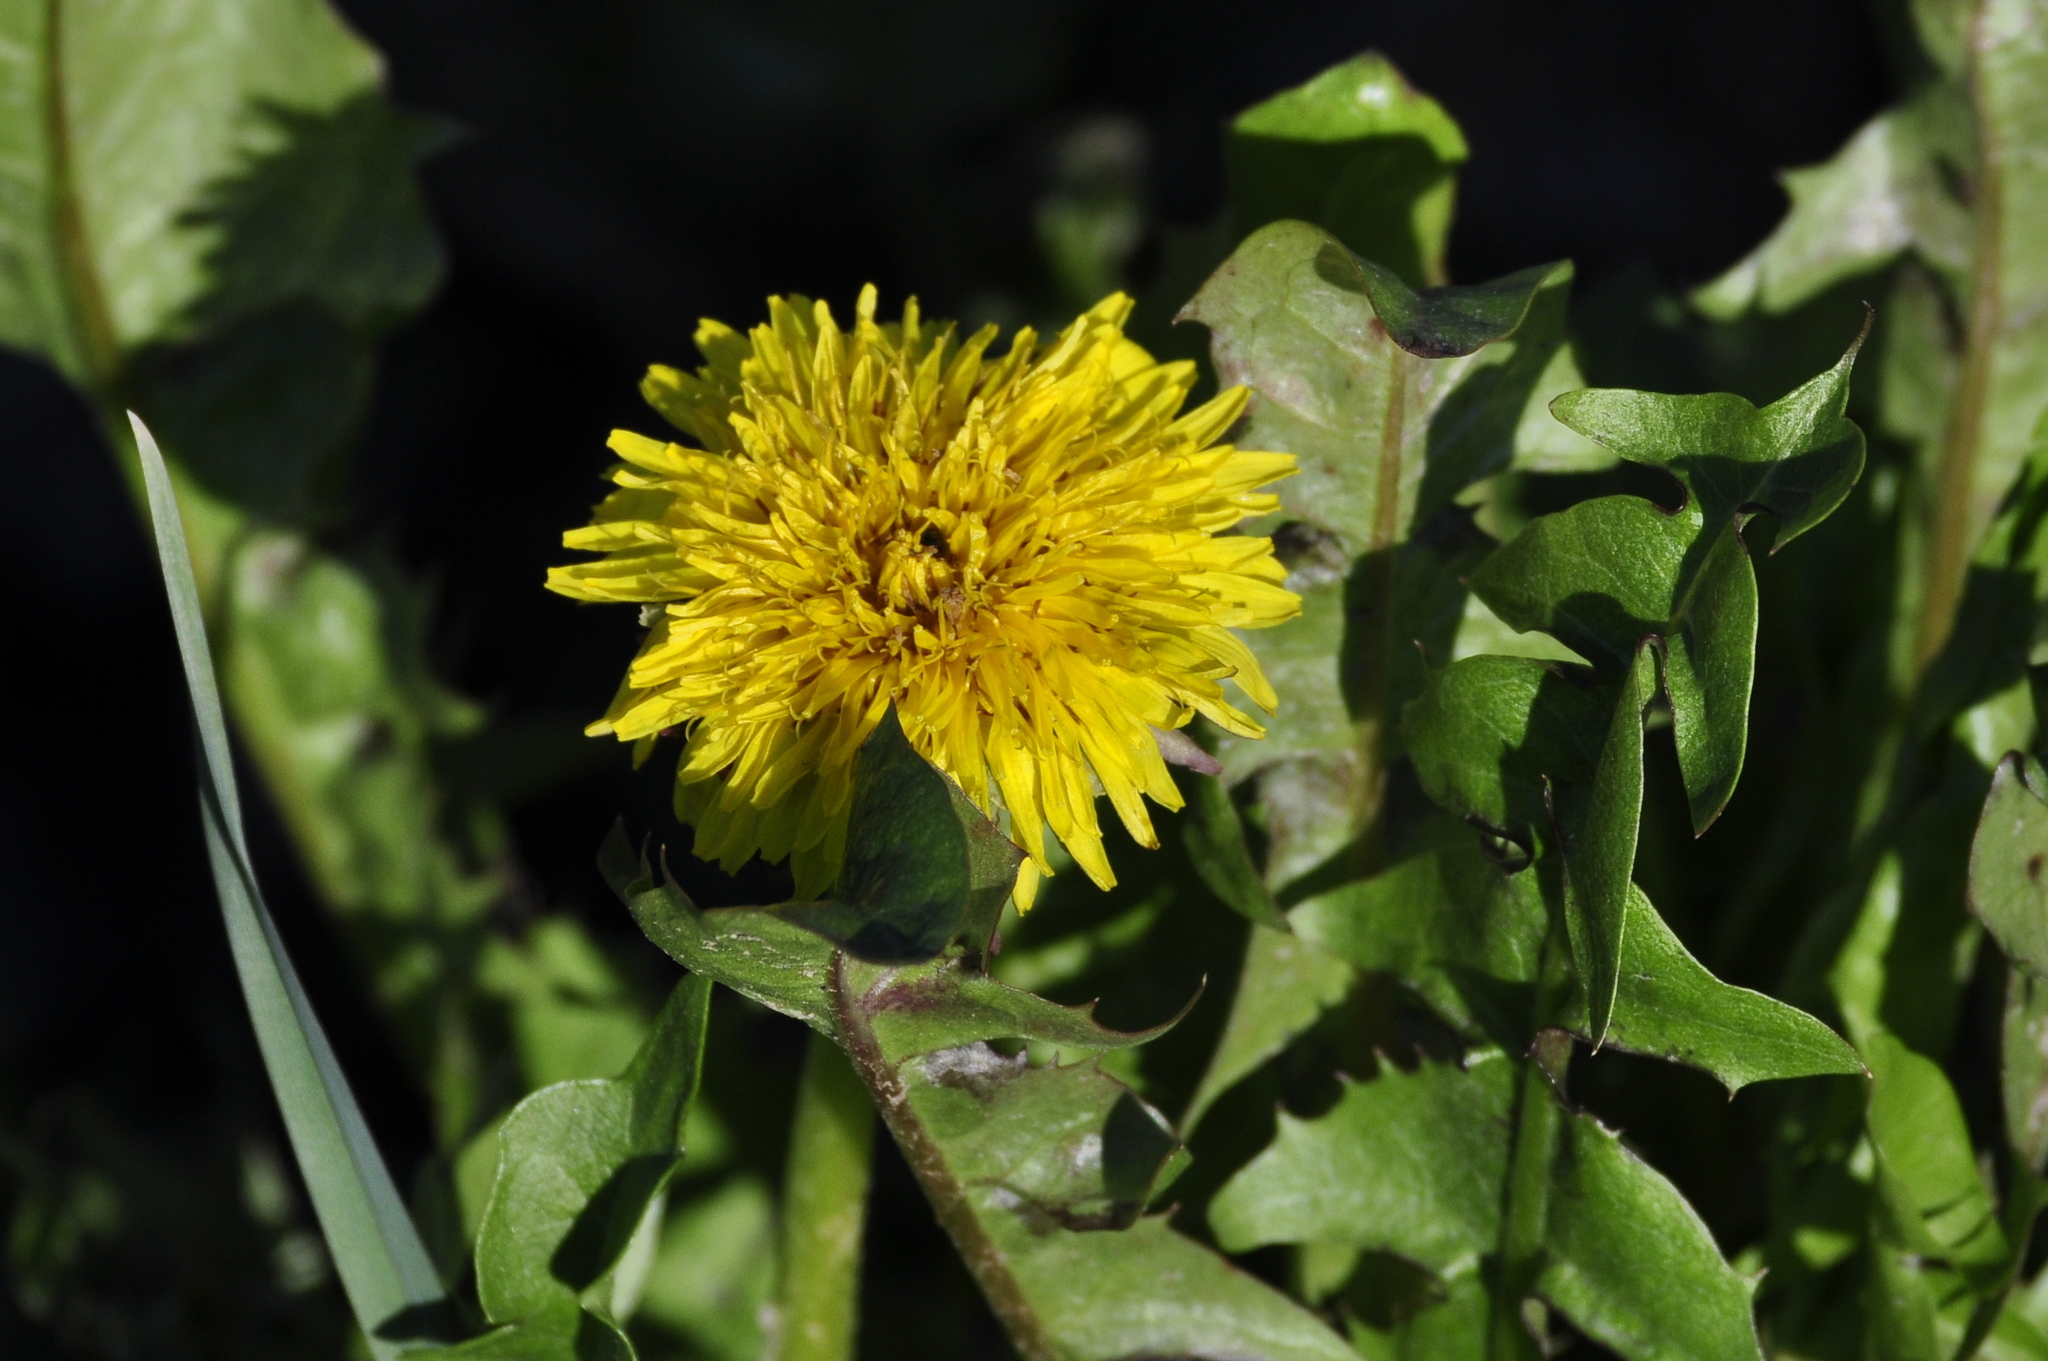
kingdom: Plantae
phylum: Tracheophyta
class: Magnoliopsida
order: Asterales
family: Asteraceae
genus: Taraxacum
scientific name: Taraxacum officinale
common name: Common dandelion
